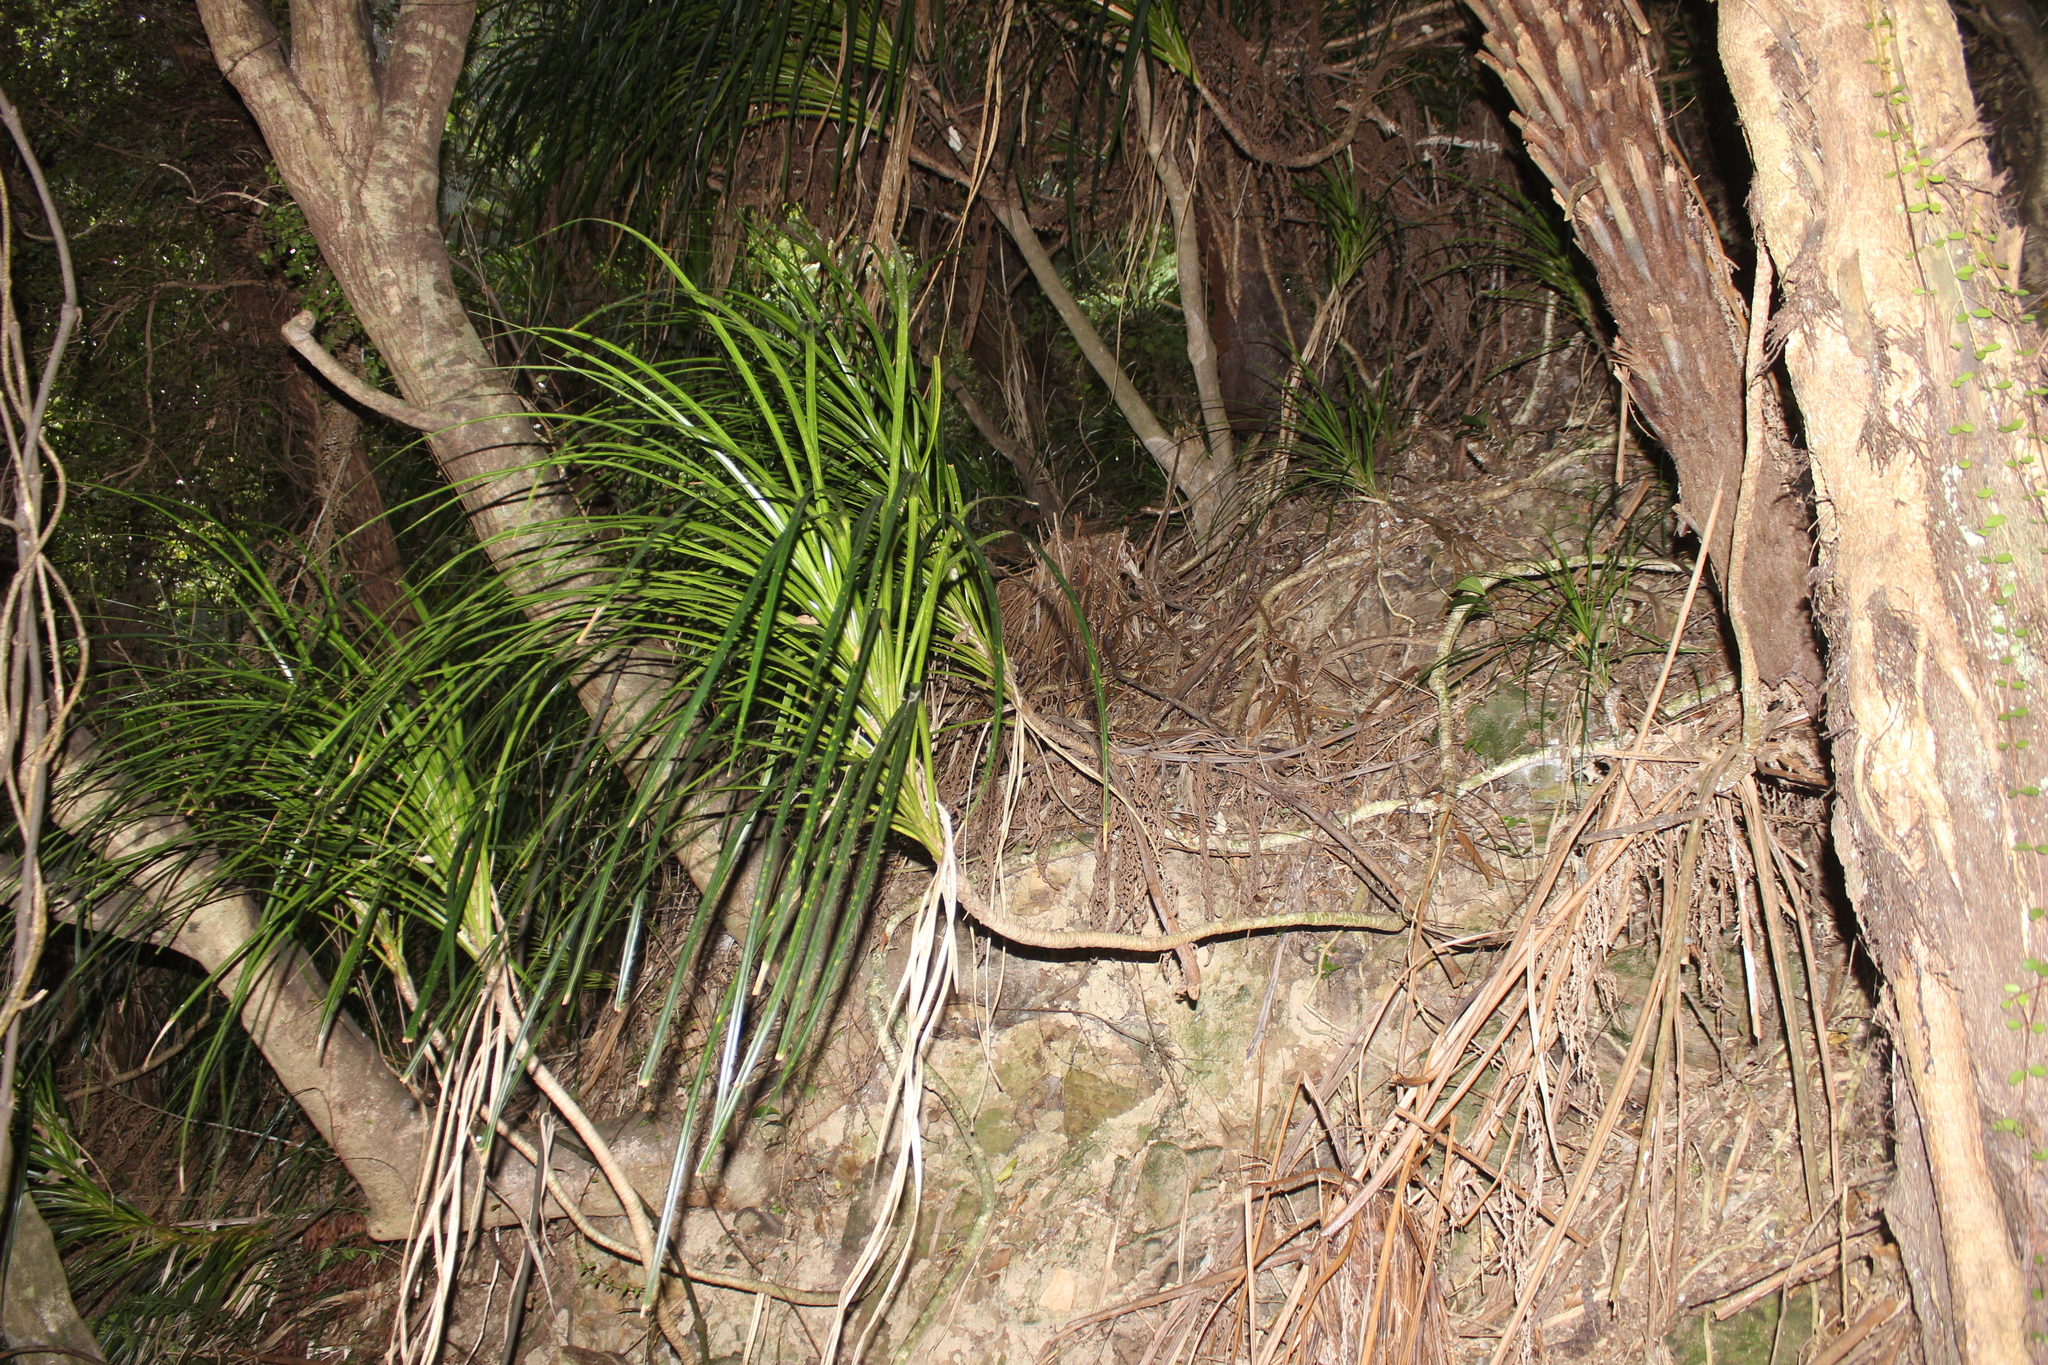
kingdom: Plantae
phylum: Tracheophyta
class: Liliopsida
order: Pandanales
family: Pandanaceae
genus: Freycinetia
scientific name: Freycinetia banksii
